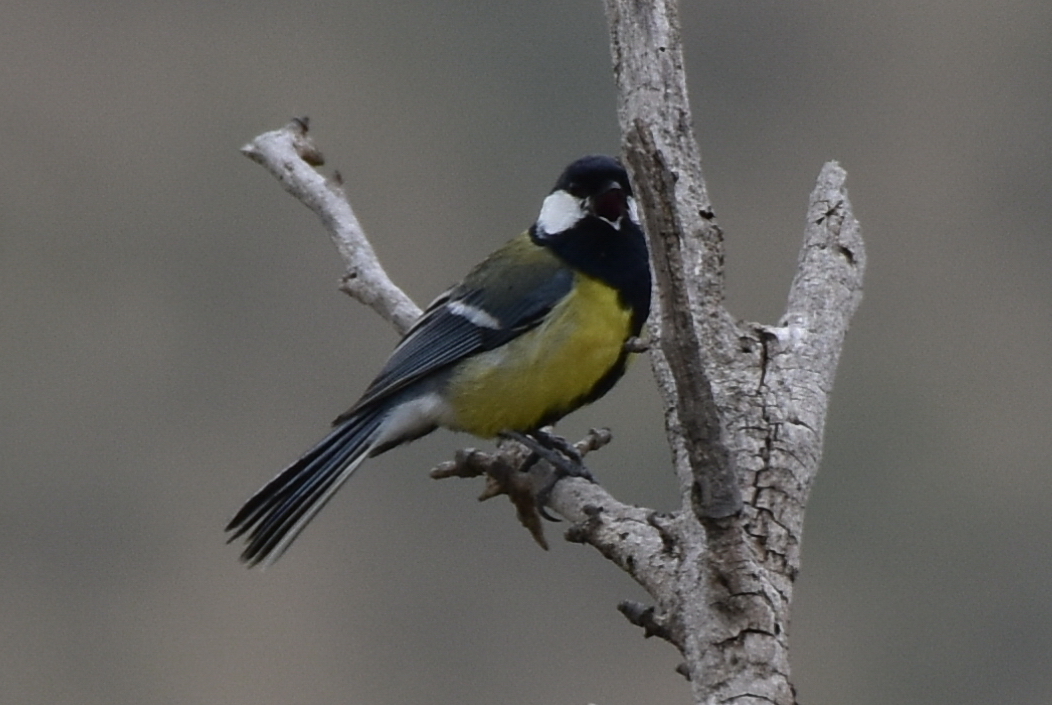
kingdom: Animalia
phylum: Chordata
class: Aves
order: Passeriformes
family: Paridae
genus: Parus
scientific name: Parus major
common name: Great tit
